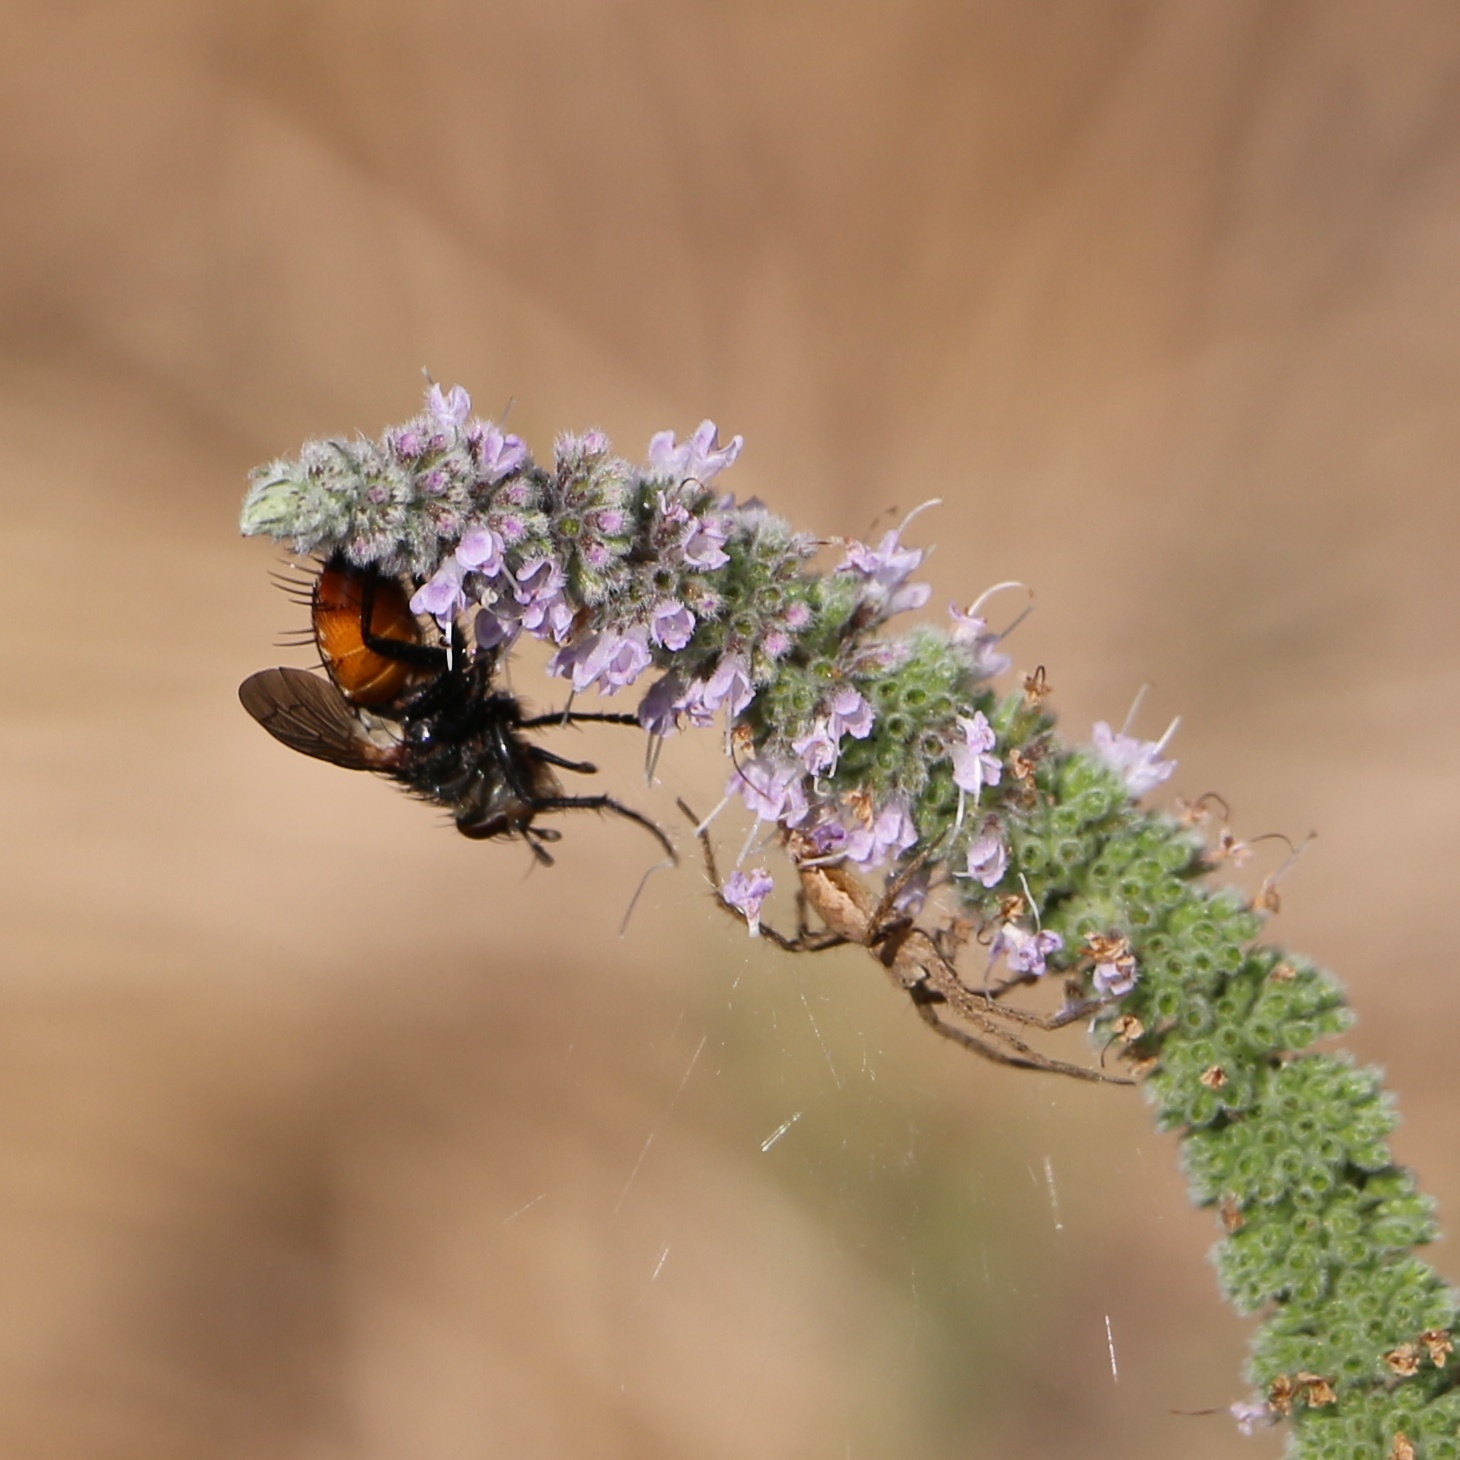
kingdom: Animalia
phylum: Arthropoda
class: Arachnida
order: Araneae
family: Pisauridae
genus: Pisaura
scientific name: Pisaura
